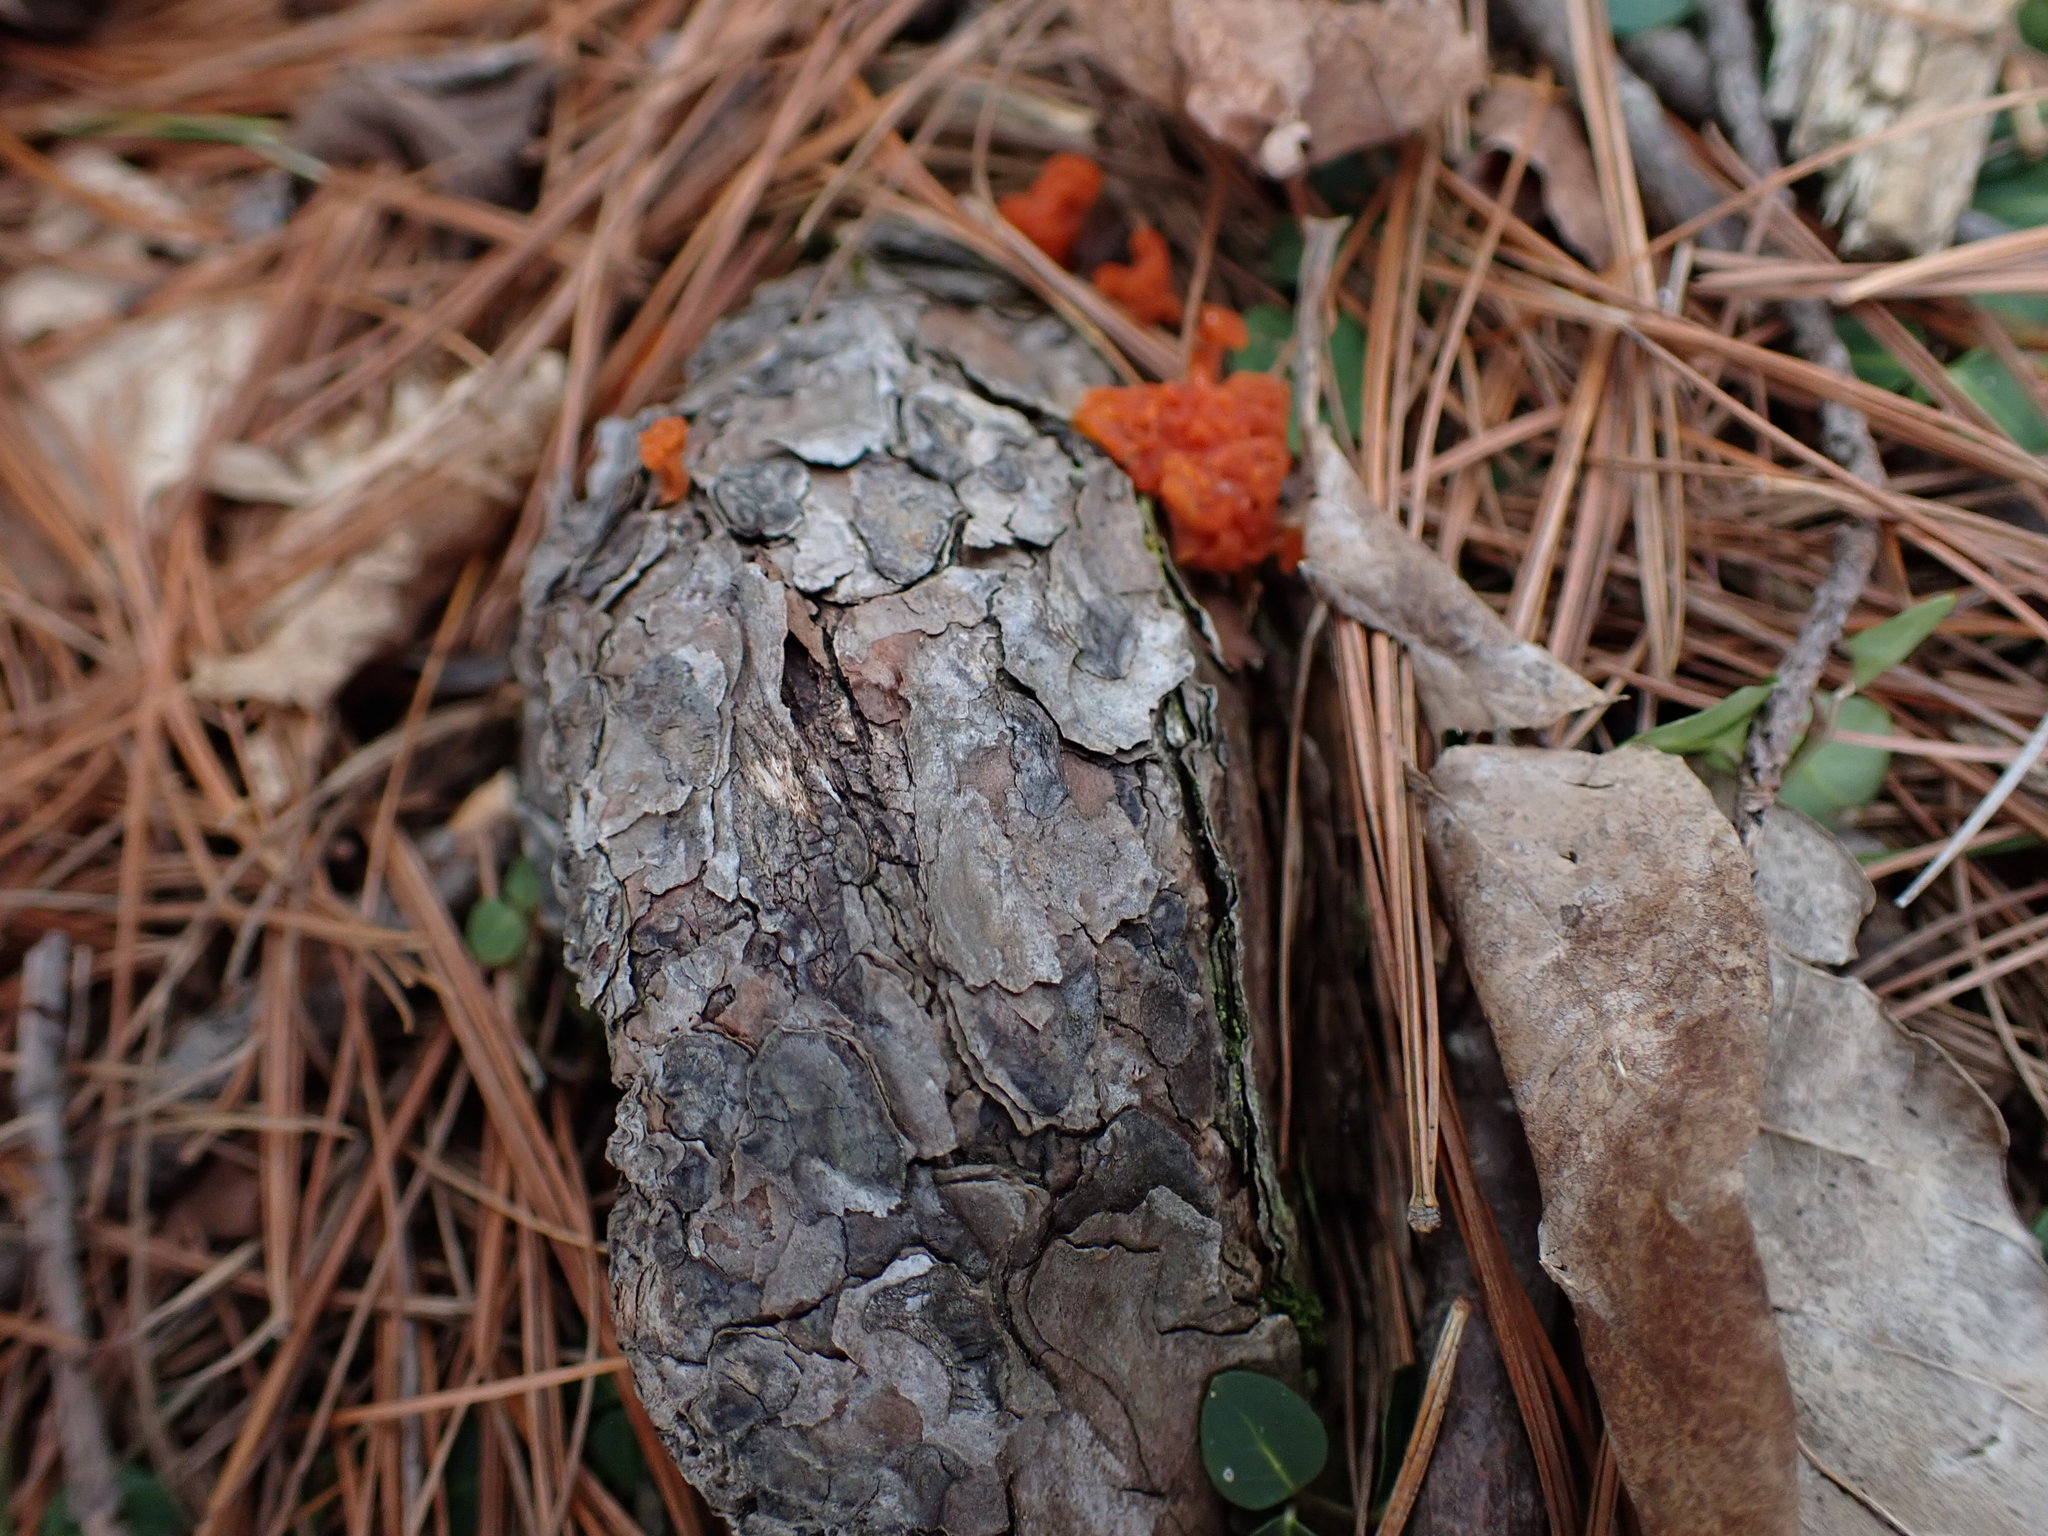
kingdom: Fungi
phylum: Basidiomycota
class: Dacrymycetes
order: Dacrymycetales
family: Dacrymycetaceae
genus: Dacrymyces
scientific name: Dacrymyces chrysospermus
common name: Orange jelly spot
